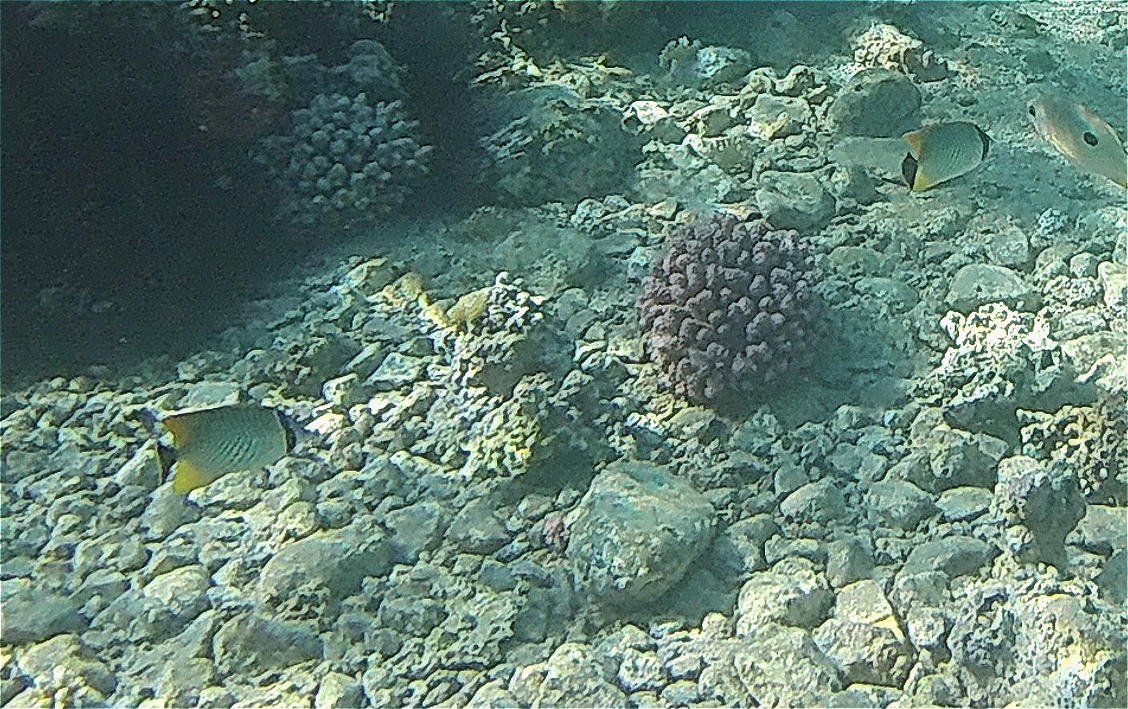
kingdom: Animalia
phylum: Chordata
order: Perciformes
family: Chaetodontidae
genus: Chaetodon
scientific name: Chaetodon trifascialis
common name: Chevroned butterflyfish
